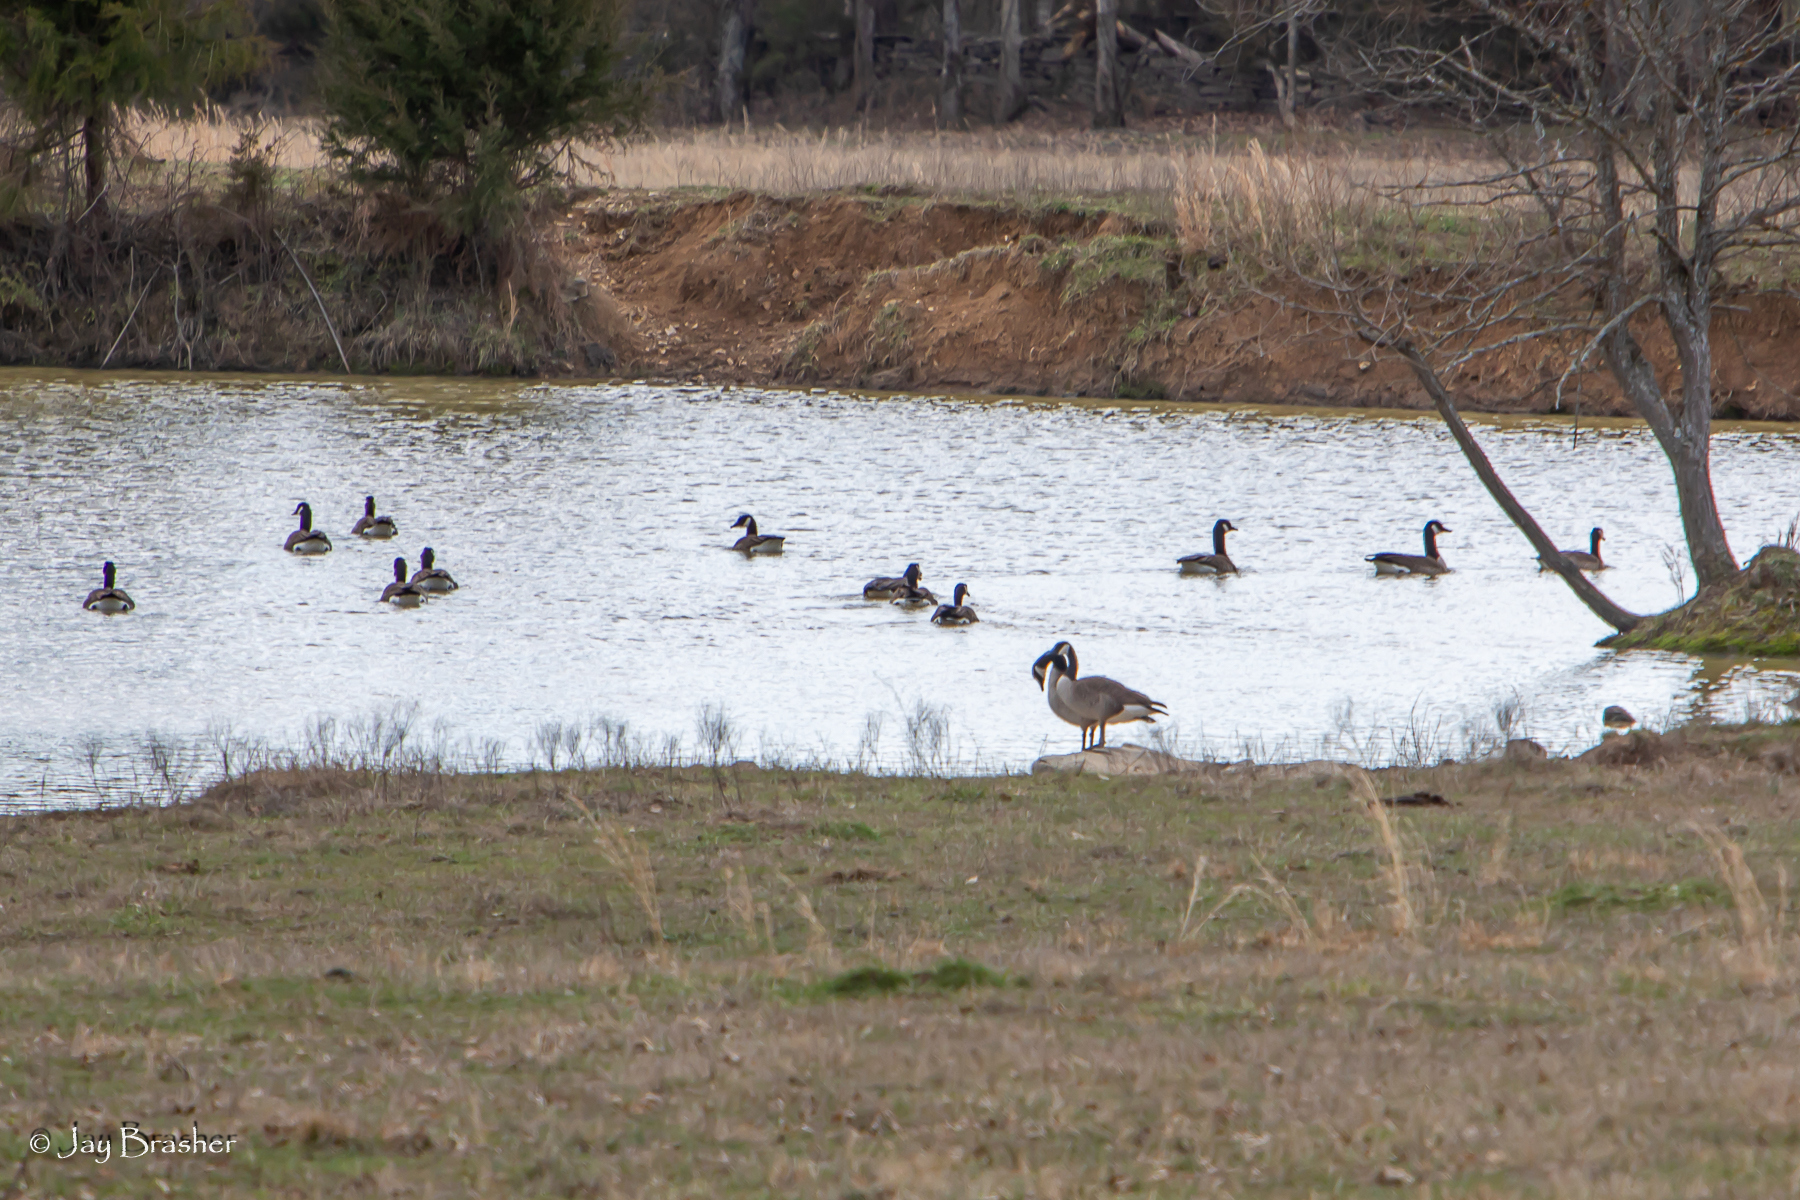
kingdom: Animalia
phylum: Chordata
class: Aves
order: Anseriformes
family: Anatidae
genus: Branta
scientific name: Branta canadensis
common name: Canada goose
